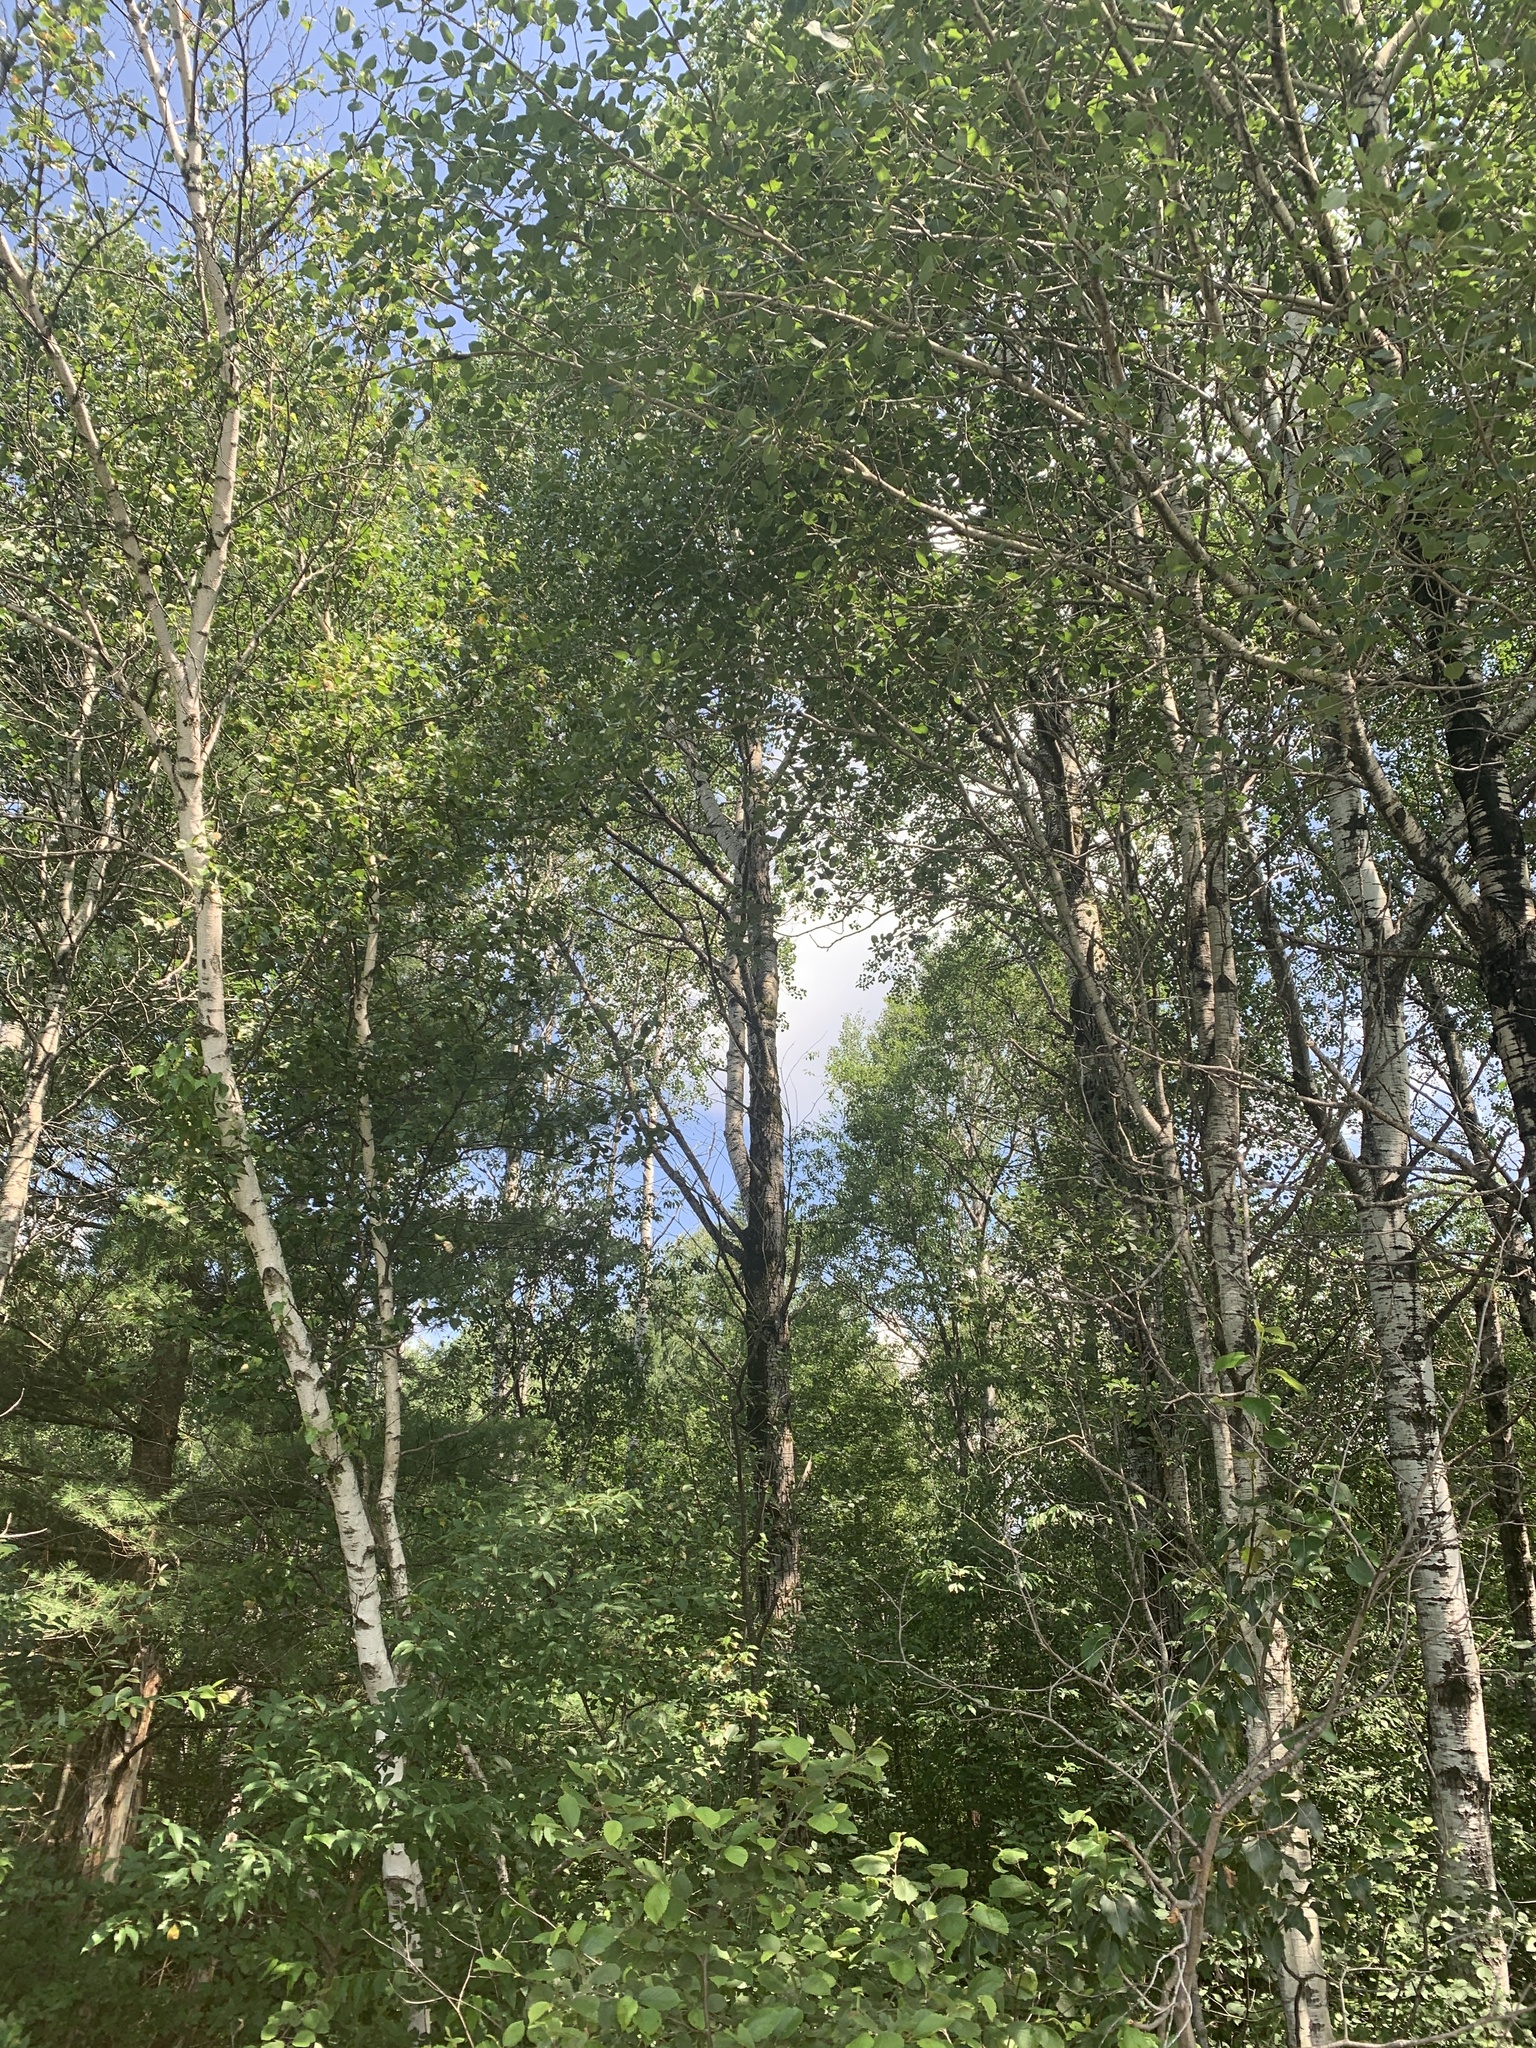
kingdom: Plantae
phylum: Tracheophyta
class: Magnoliopsida
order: Malpighiales
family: Salicaceae
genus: Populus
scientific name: Populus tremuloides
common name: Quaking aspen
